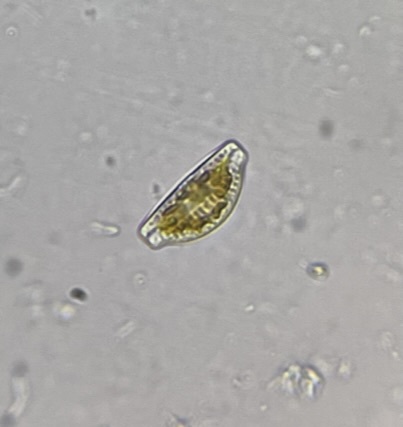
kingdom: Chromista
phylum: Ochrophyta
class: Bacillariophyceae
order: Rhopalodiales
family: Rhopalodiaceae
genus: Epithemia
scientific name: Epithemia sorex
